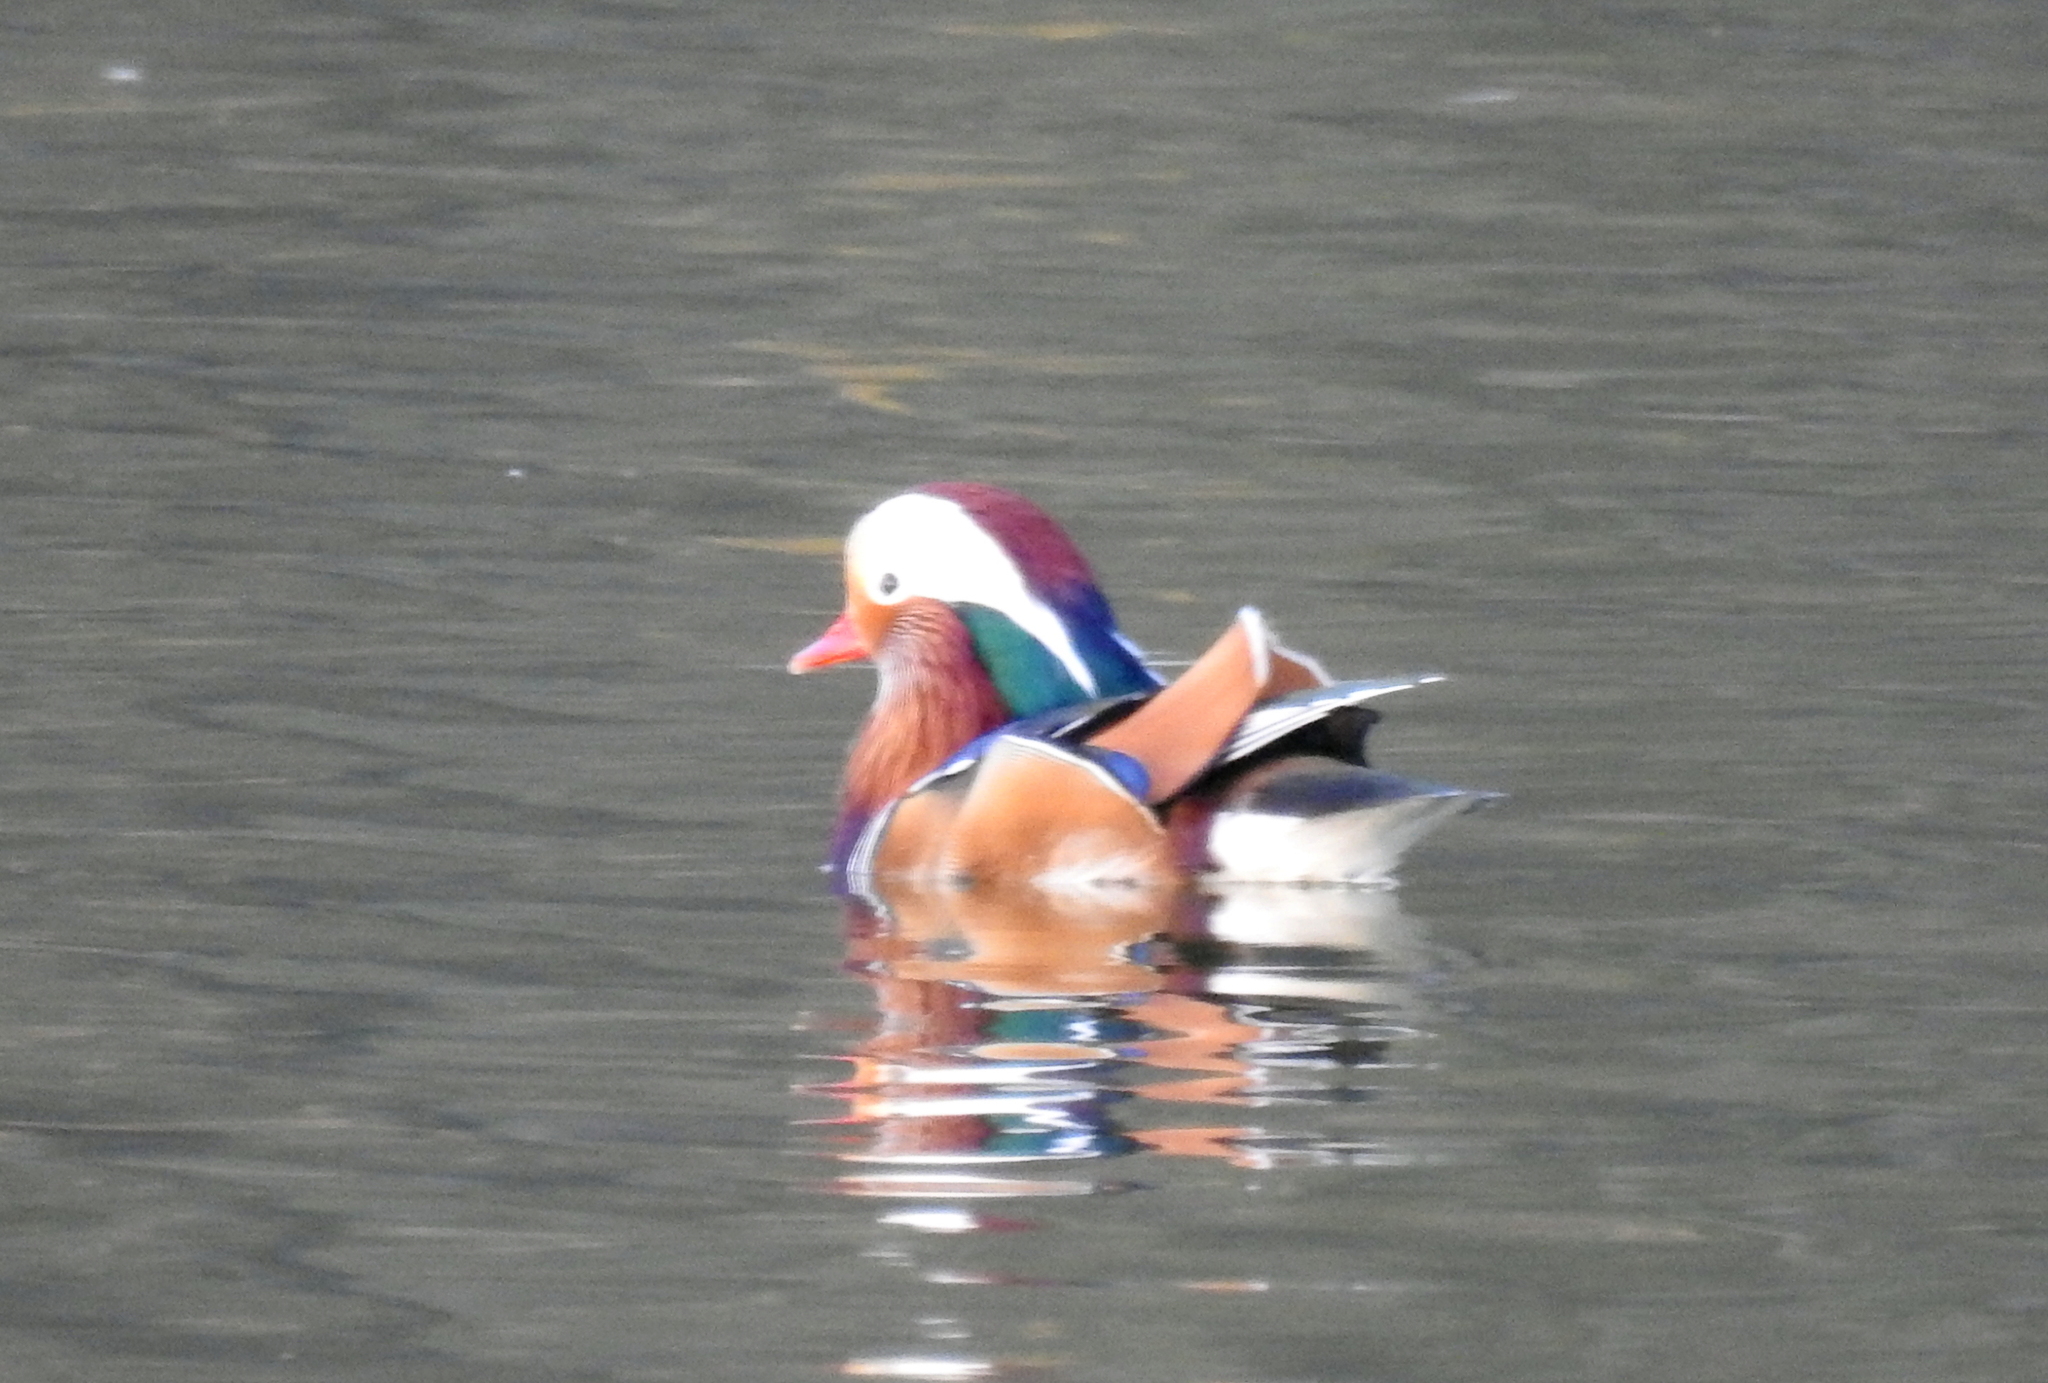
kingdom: Animalia
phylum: Chordata
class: Aves
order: Anseriformes
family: Anatidae
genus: Aix
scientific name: Aix galericulata
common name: Mandarin duck
